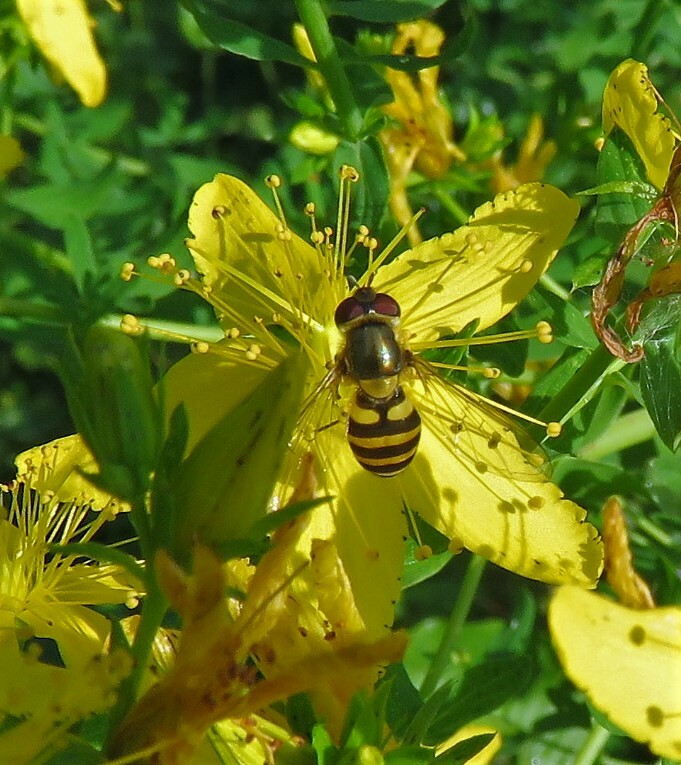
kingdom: Animalia
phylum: Arthropoda
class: Insecta
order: Diptera
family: Syrphidae
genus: Syrphus
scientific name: Syrphus rectus
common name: Yellow-legged flower fly
